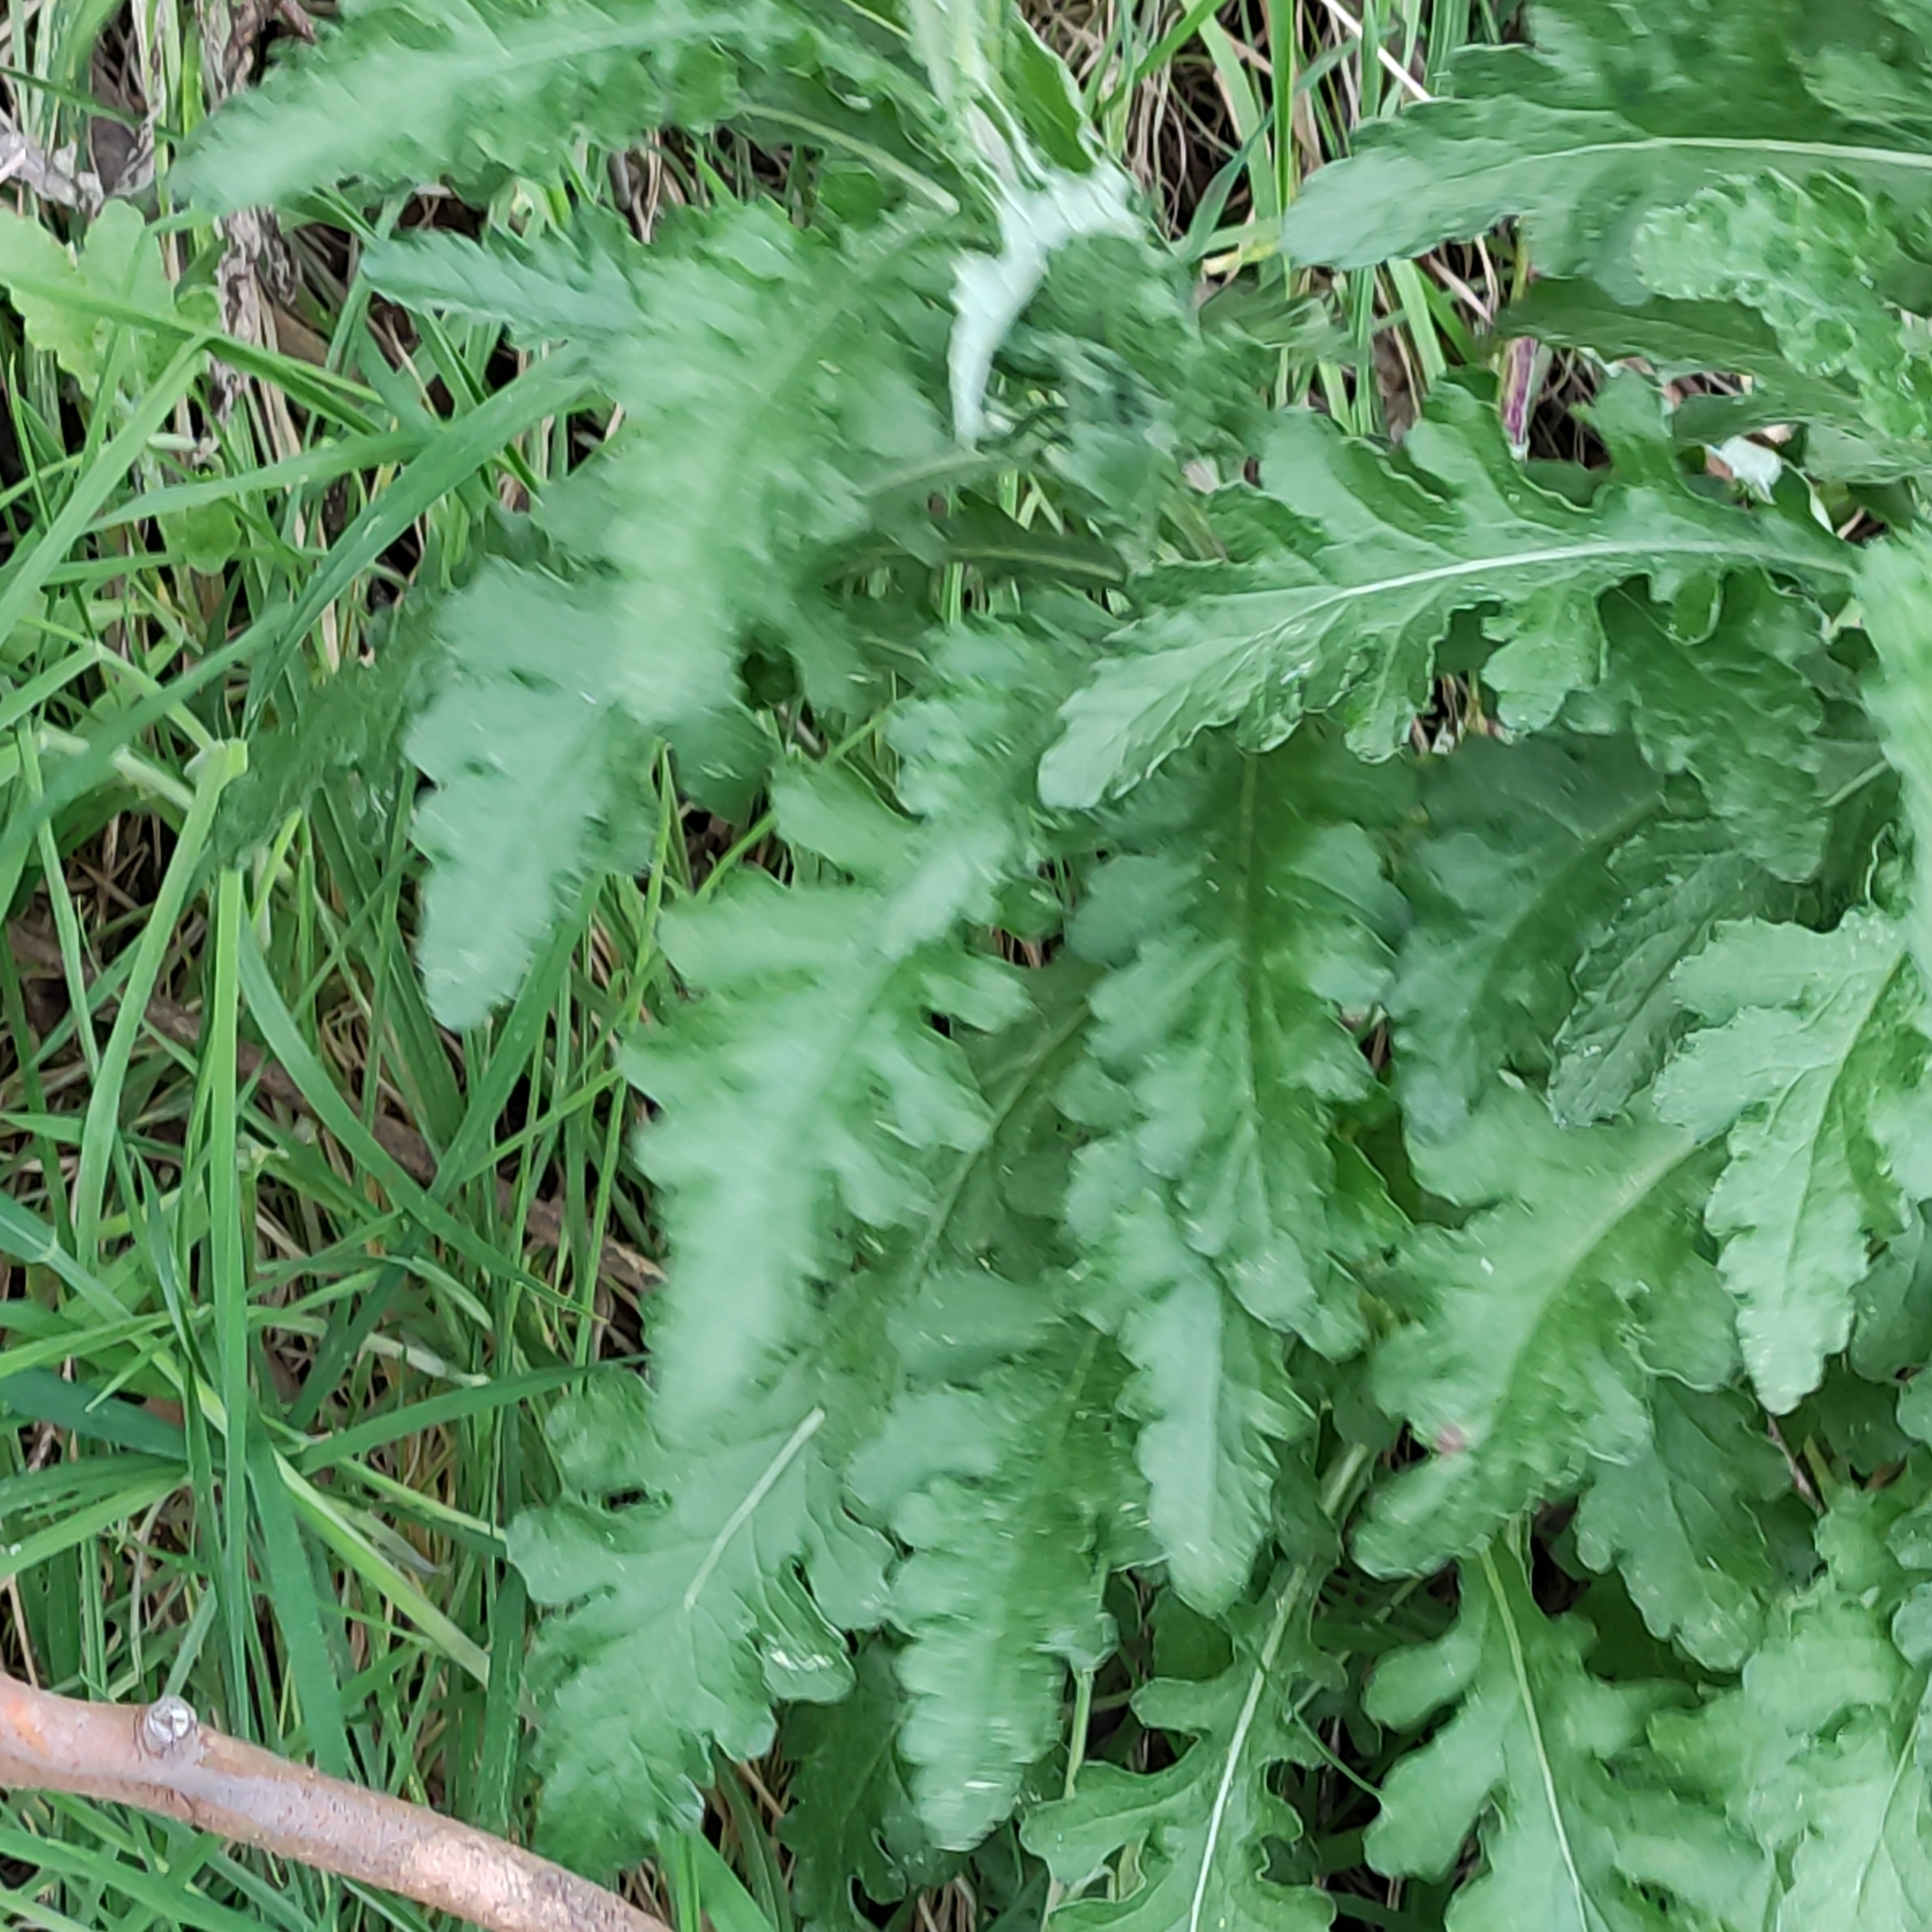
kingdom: Plantae
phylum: Tracheophyta
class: Magnoliopsida
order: Asterales
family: Asteraceae
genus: Senecio
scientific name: Senecio glomeratus
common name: Cutleaf burnweed
